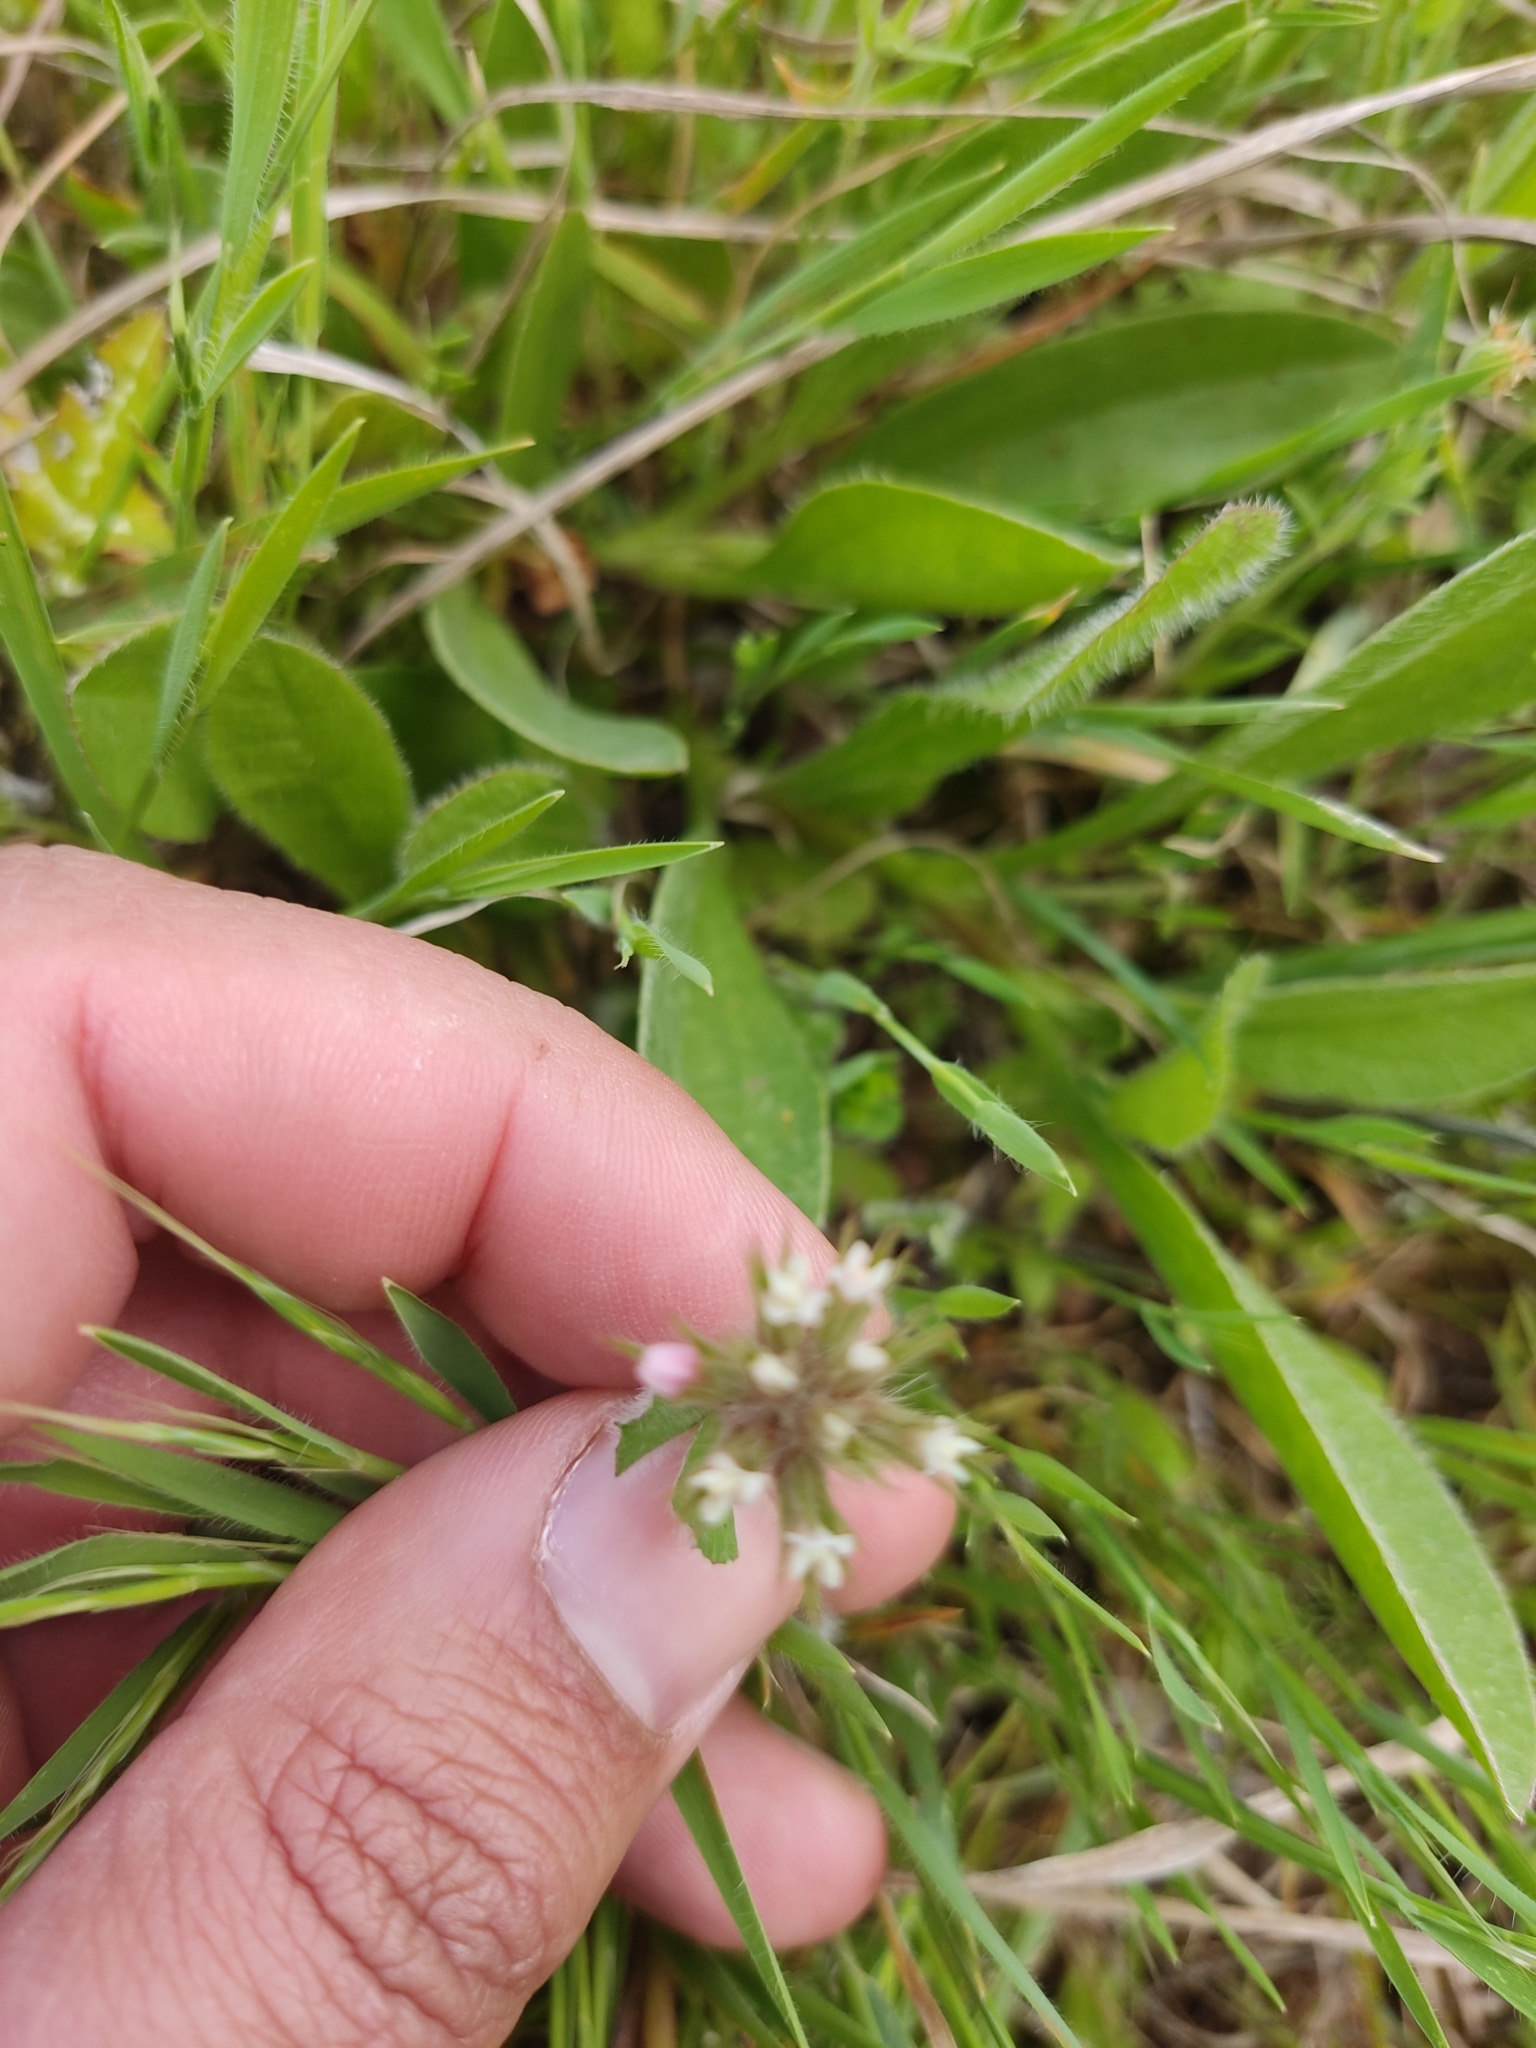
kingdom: Plantae
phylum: Tracheophyta
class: Magnoliopsida
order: Fabales
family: Fabaceae
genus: Trifolium
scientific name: Trifolium stellatum
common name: Starry clover
